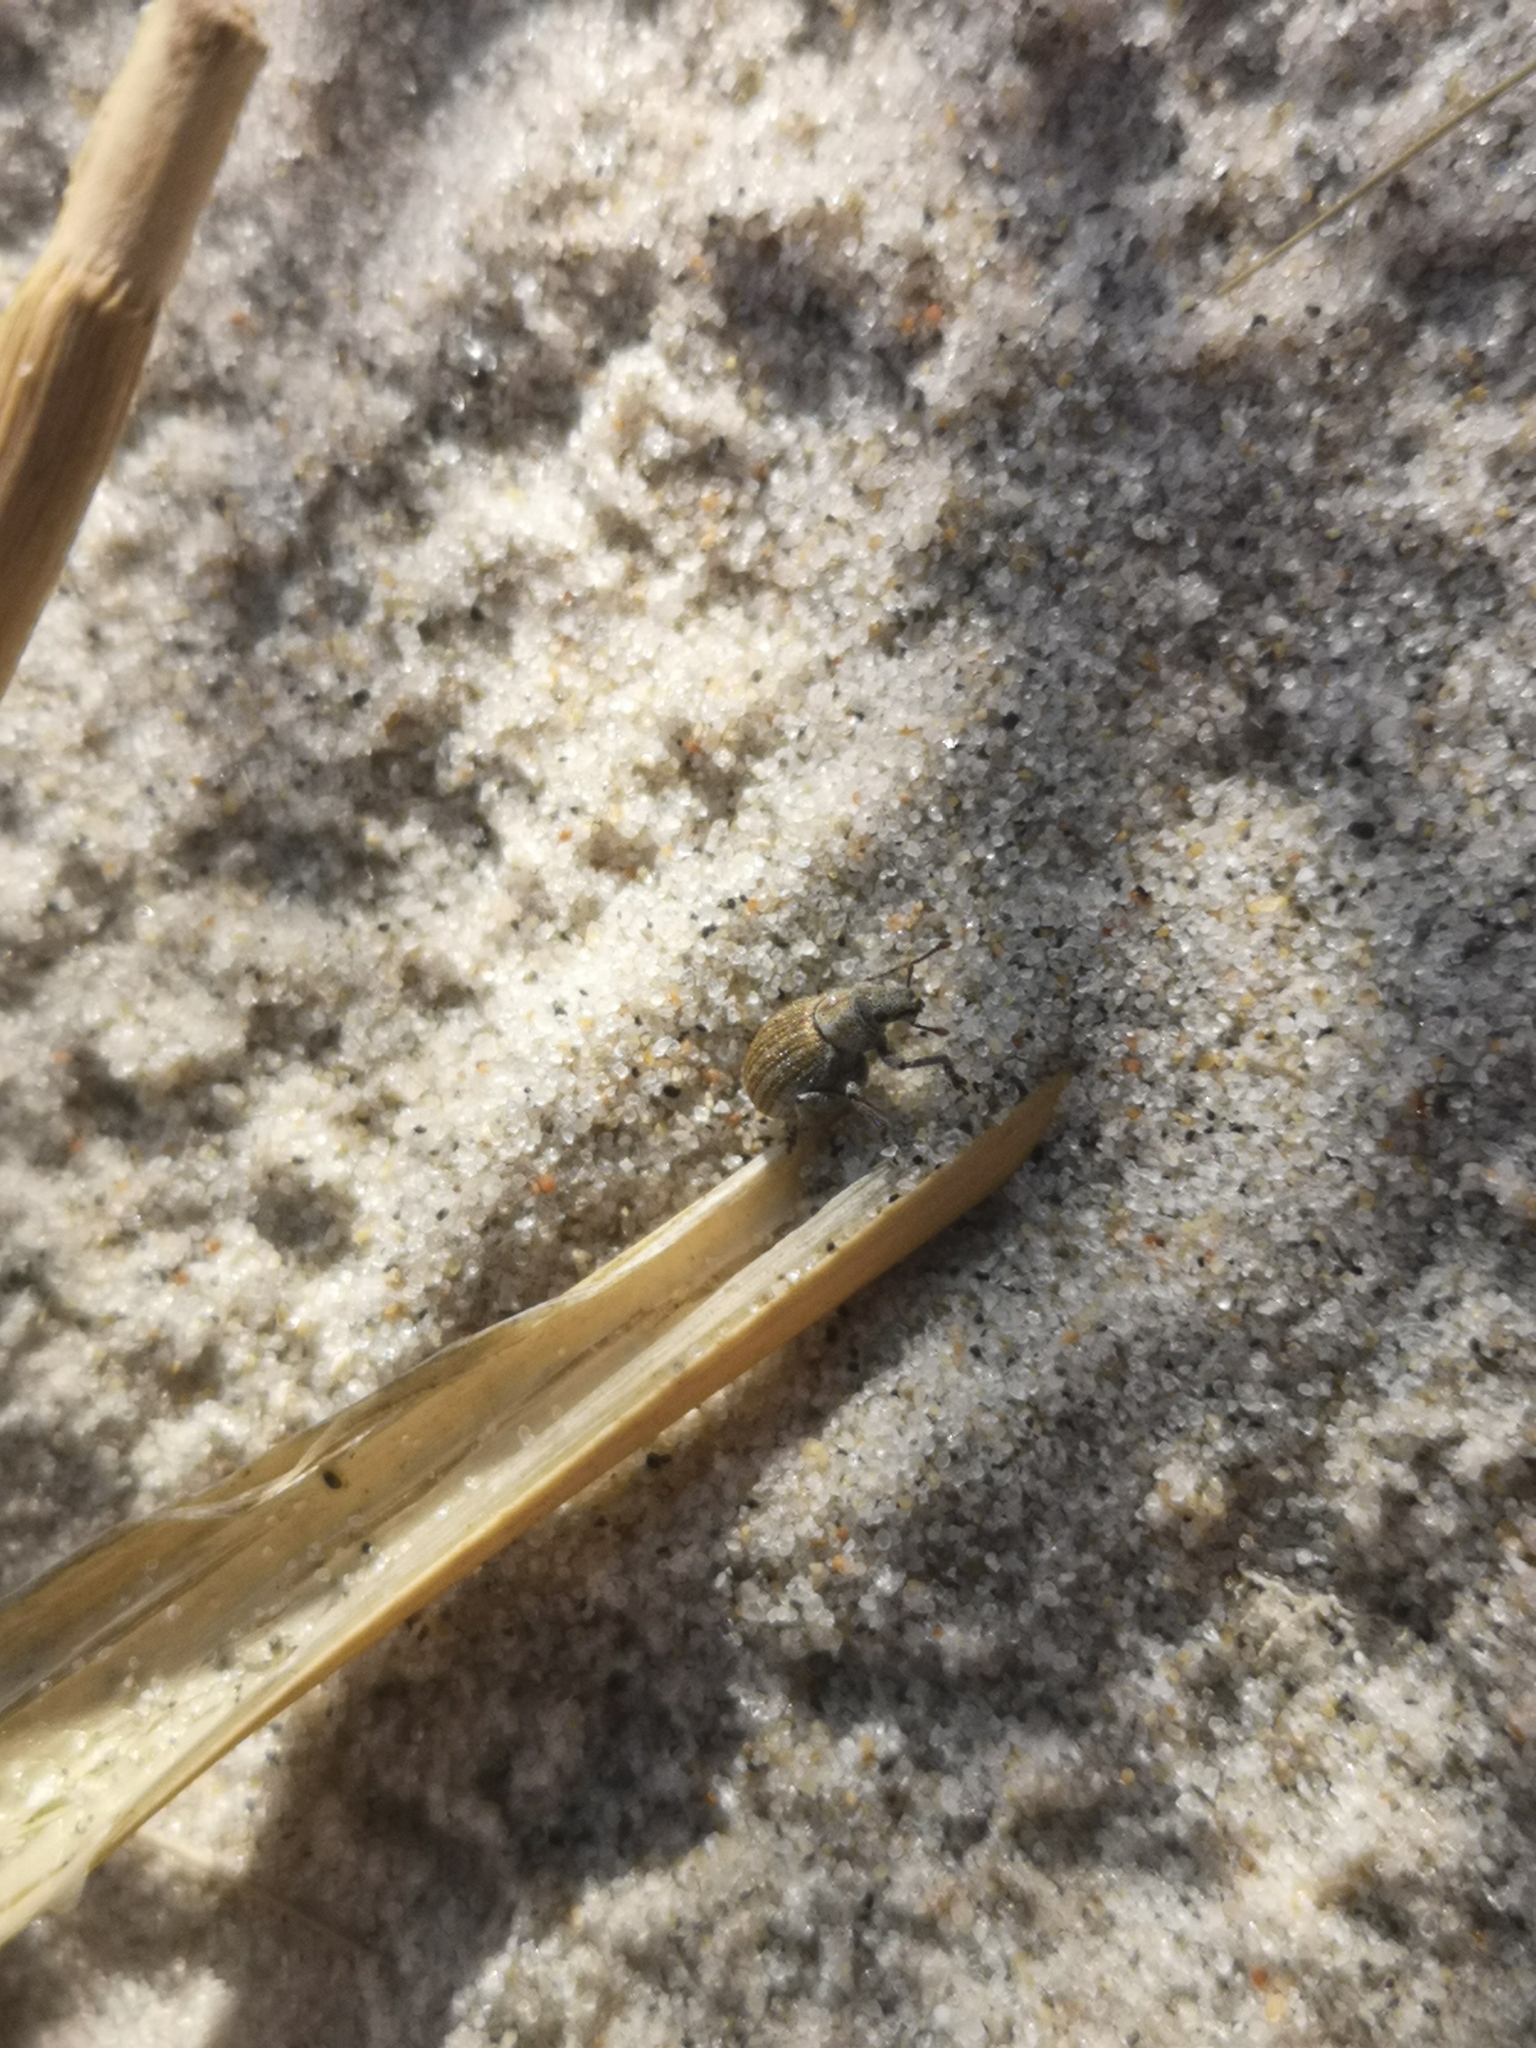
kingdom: Animalia
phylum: Arthropoda
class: Insecta
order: Coleoptera
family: Curculionidae
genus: Philopedon
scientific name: Philopedon plagiatum
